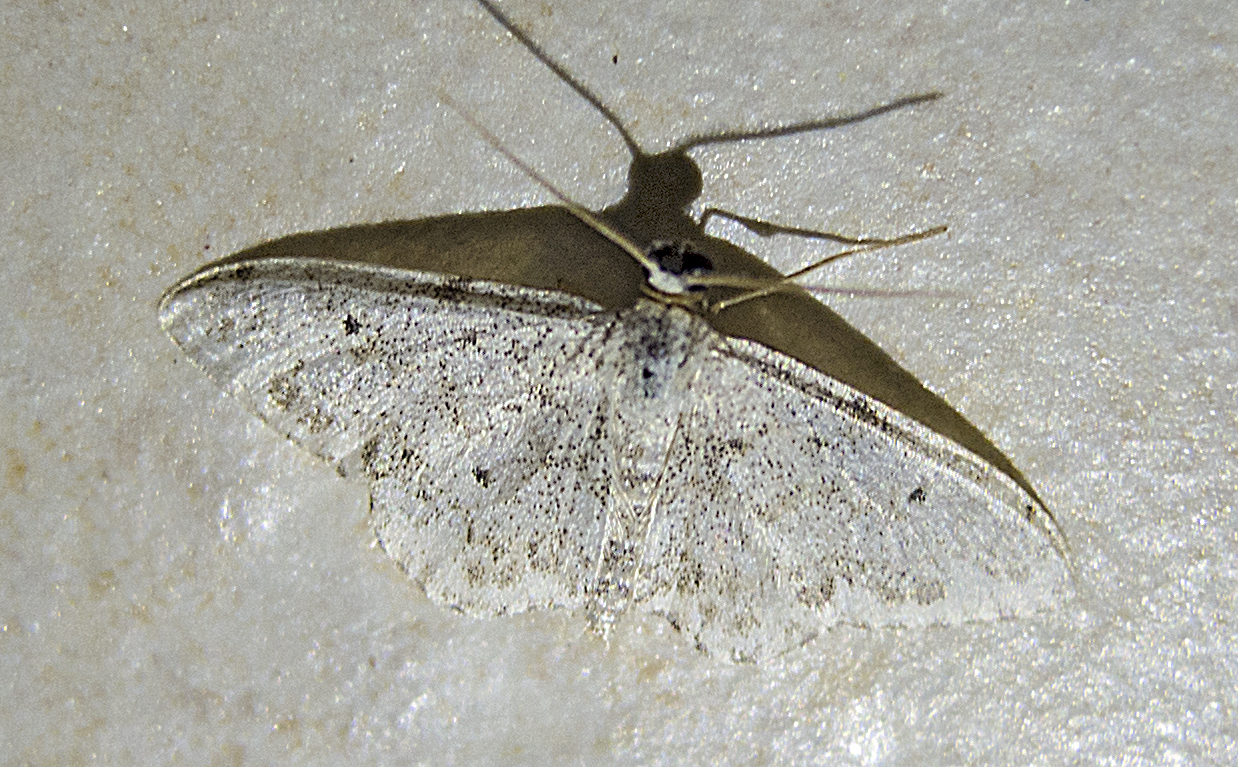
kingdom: Animalia
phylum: Arthropoda
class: Insecta
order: Lepidoptera
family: Geometridae
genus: Idaea
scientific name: Idaea camparia
